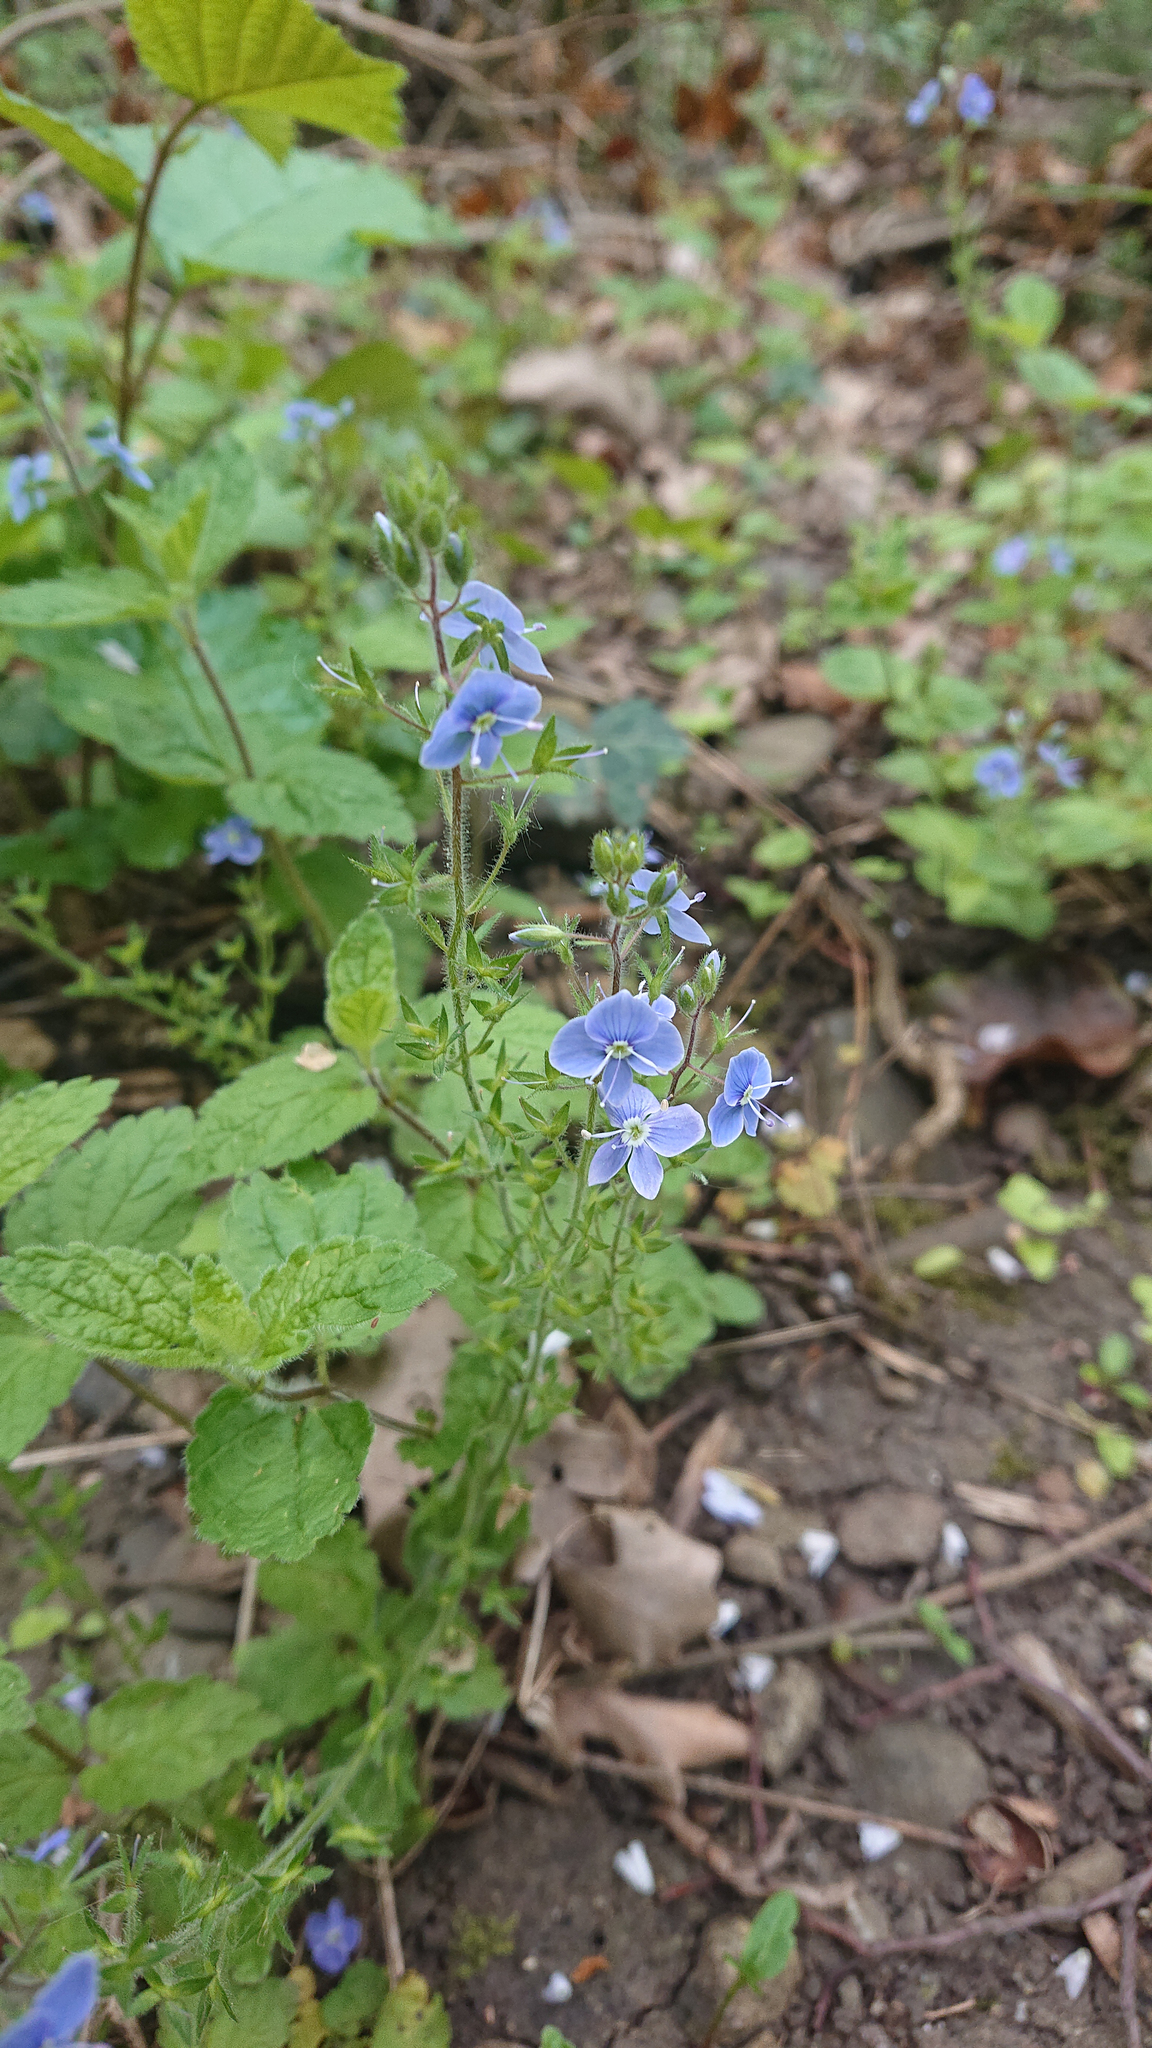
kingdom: Plantae
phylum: Tracheophyta
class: Magnoliopsida
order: Lamiales
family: Plantaginaceae
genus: Veronica
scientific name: Veronica chamaedrys
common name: Germander speedwell
